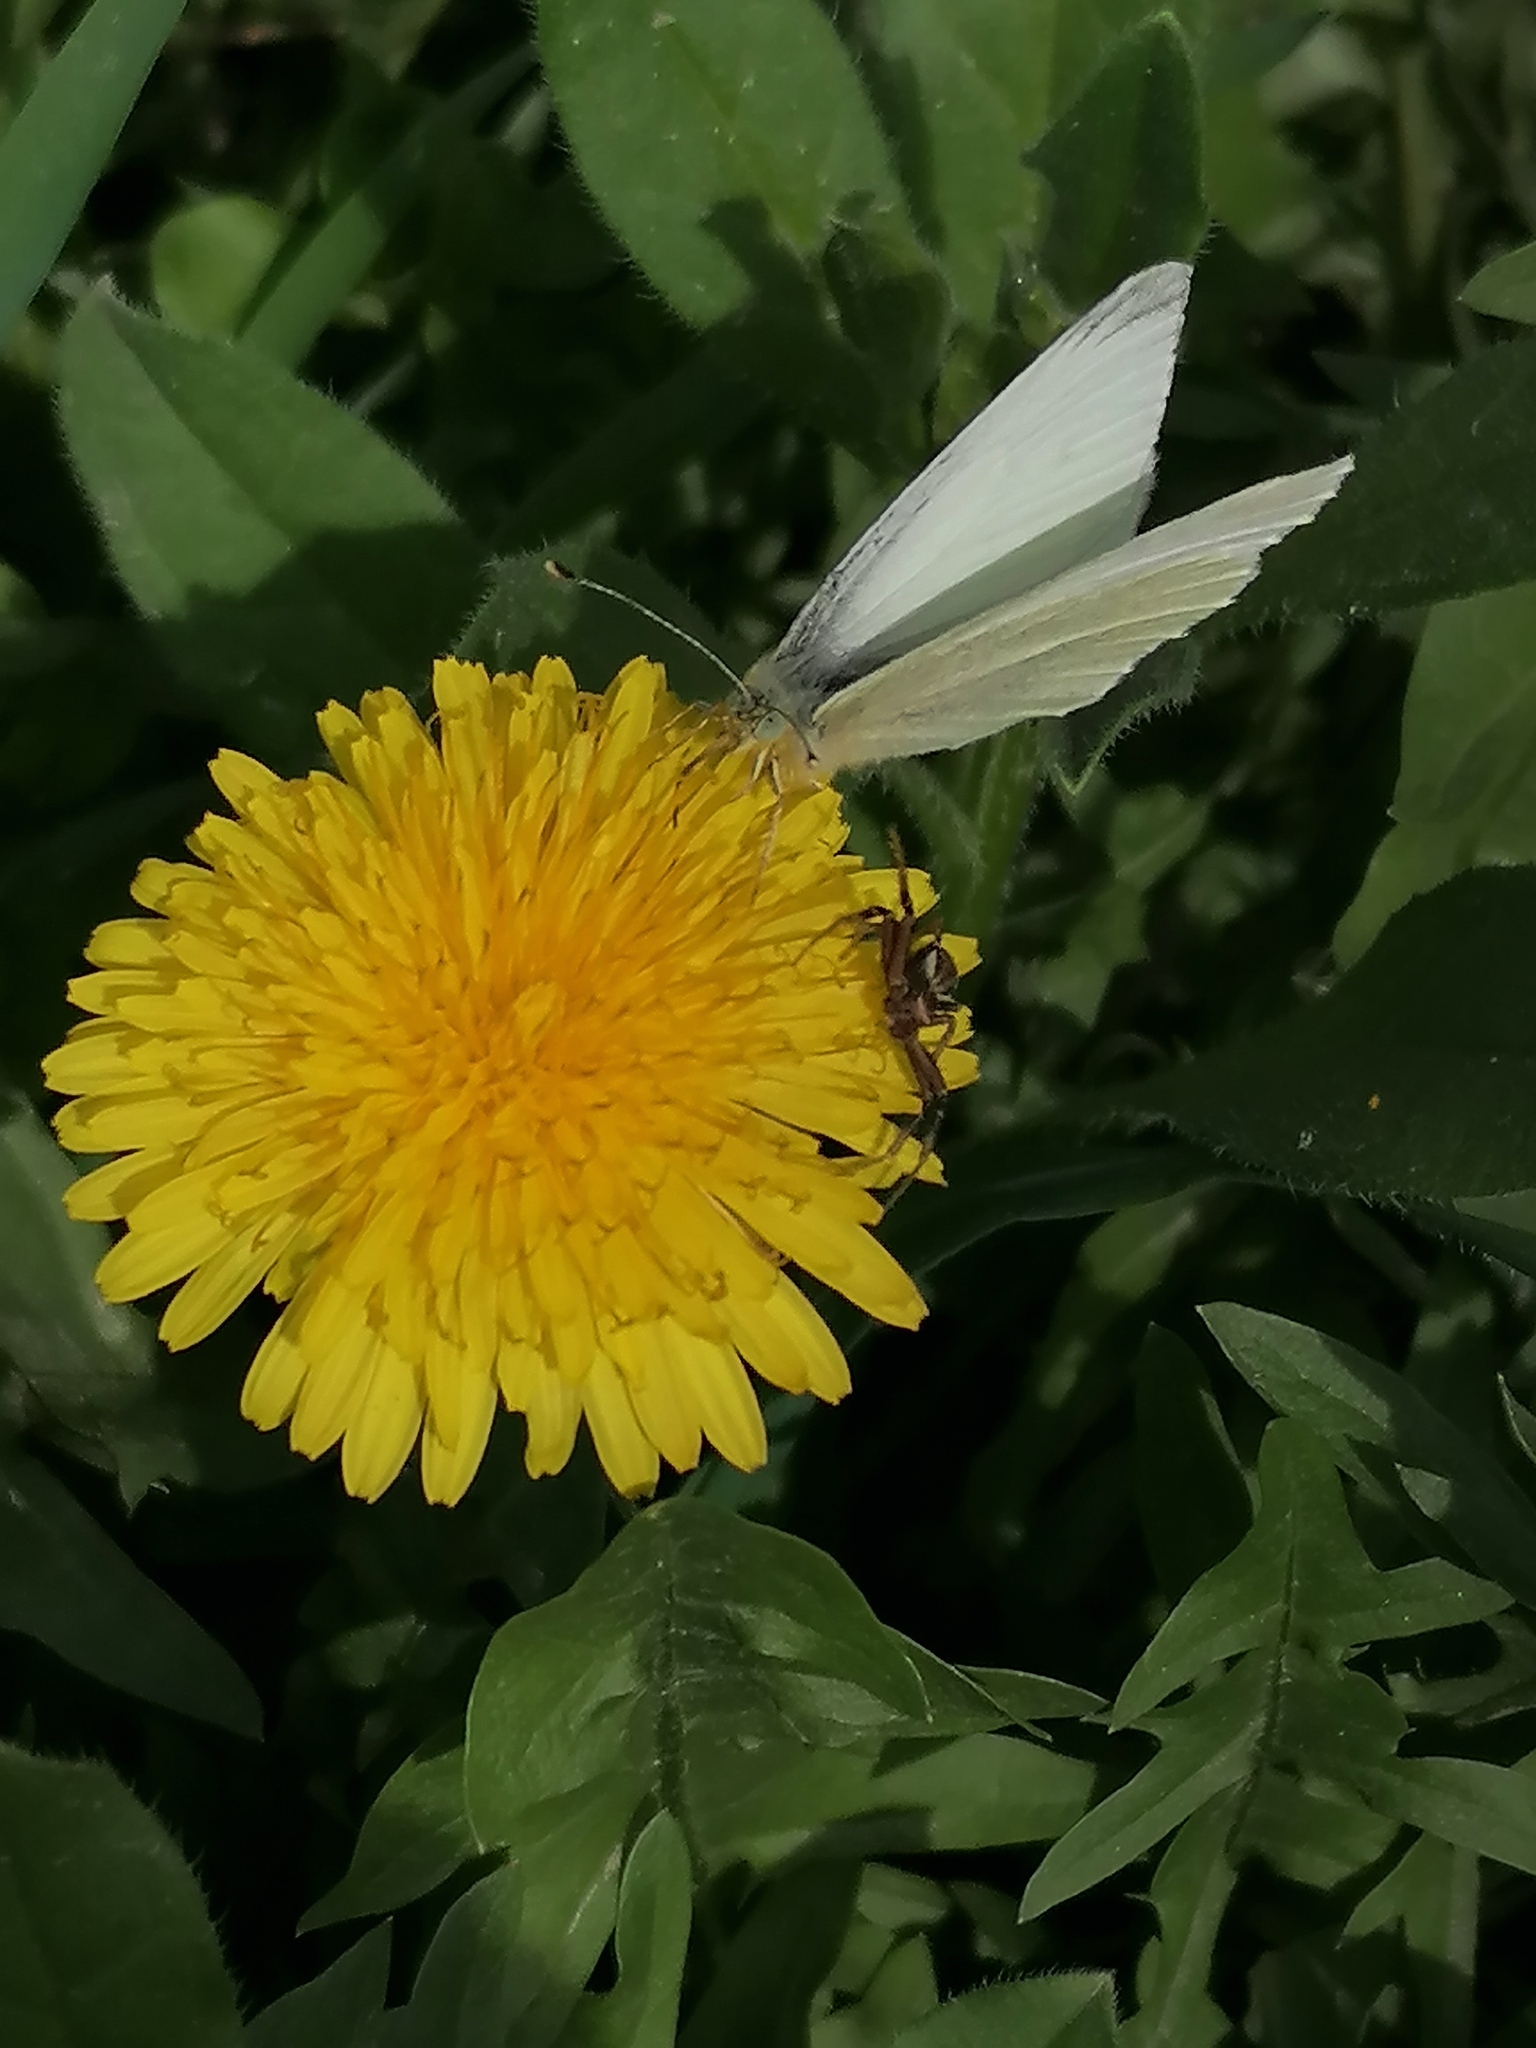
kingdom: Animalia
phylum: Arthropoda
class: Insecta
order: Lepidoptera
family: Pieridae
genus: Pieris
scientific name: Pieris rapae
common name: Small white
